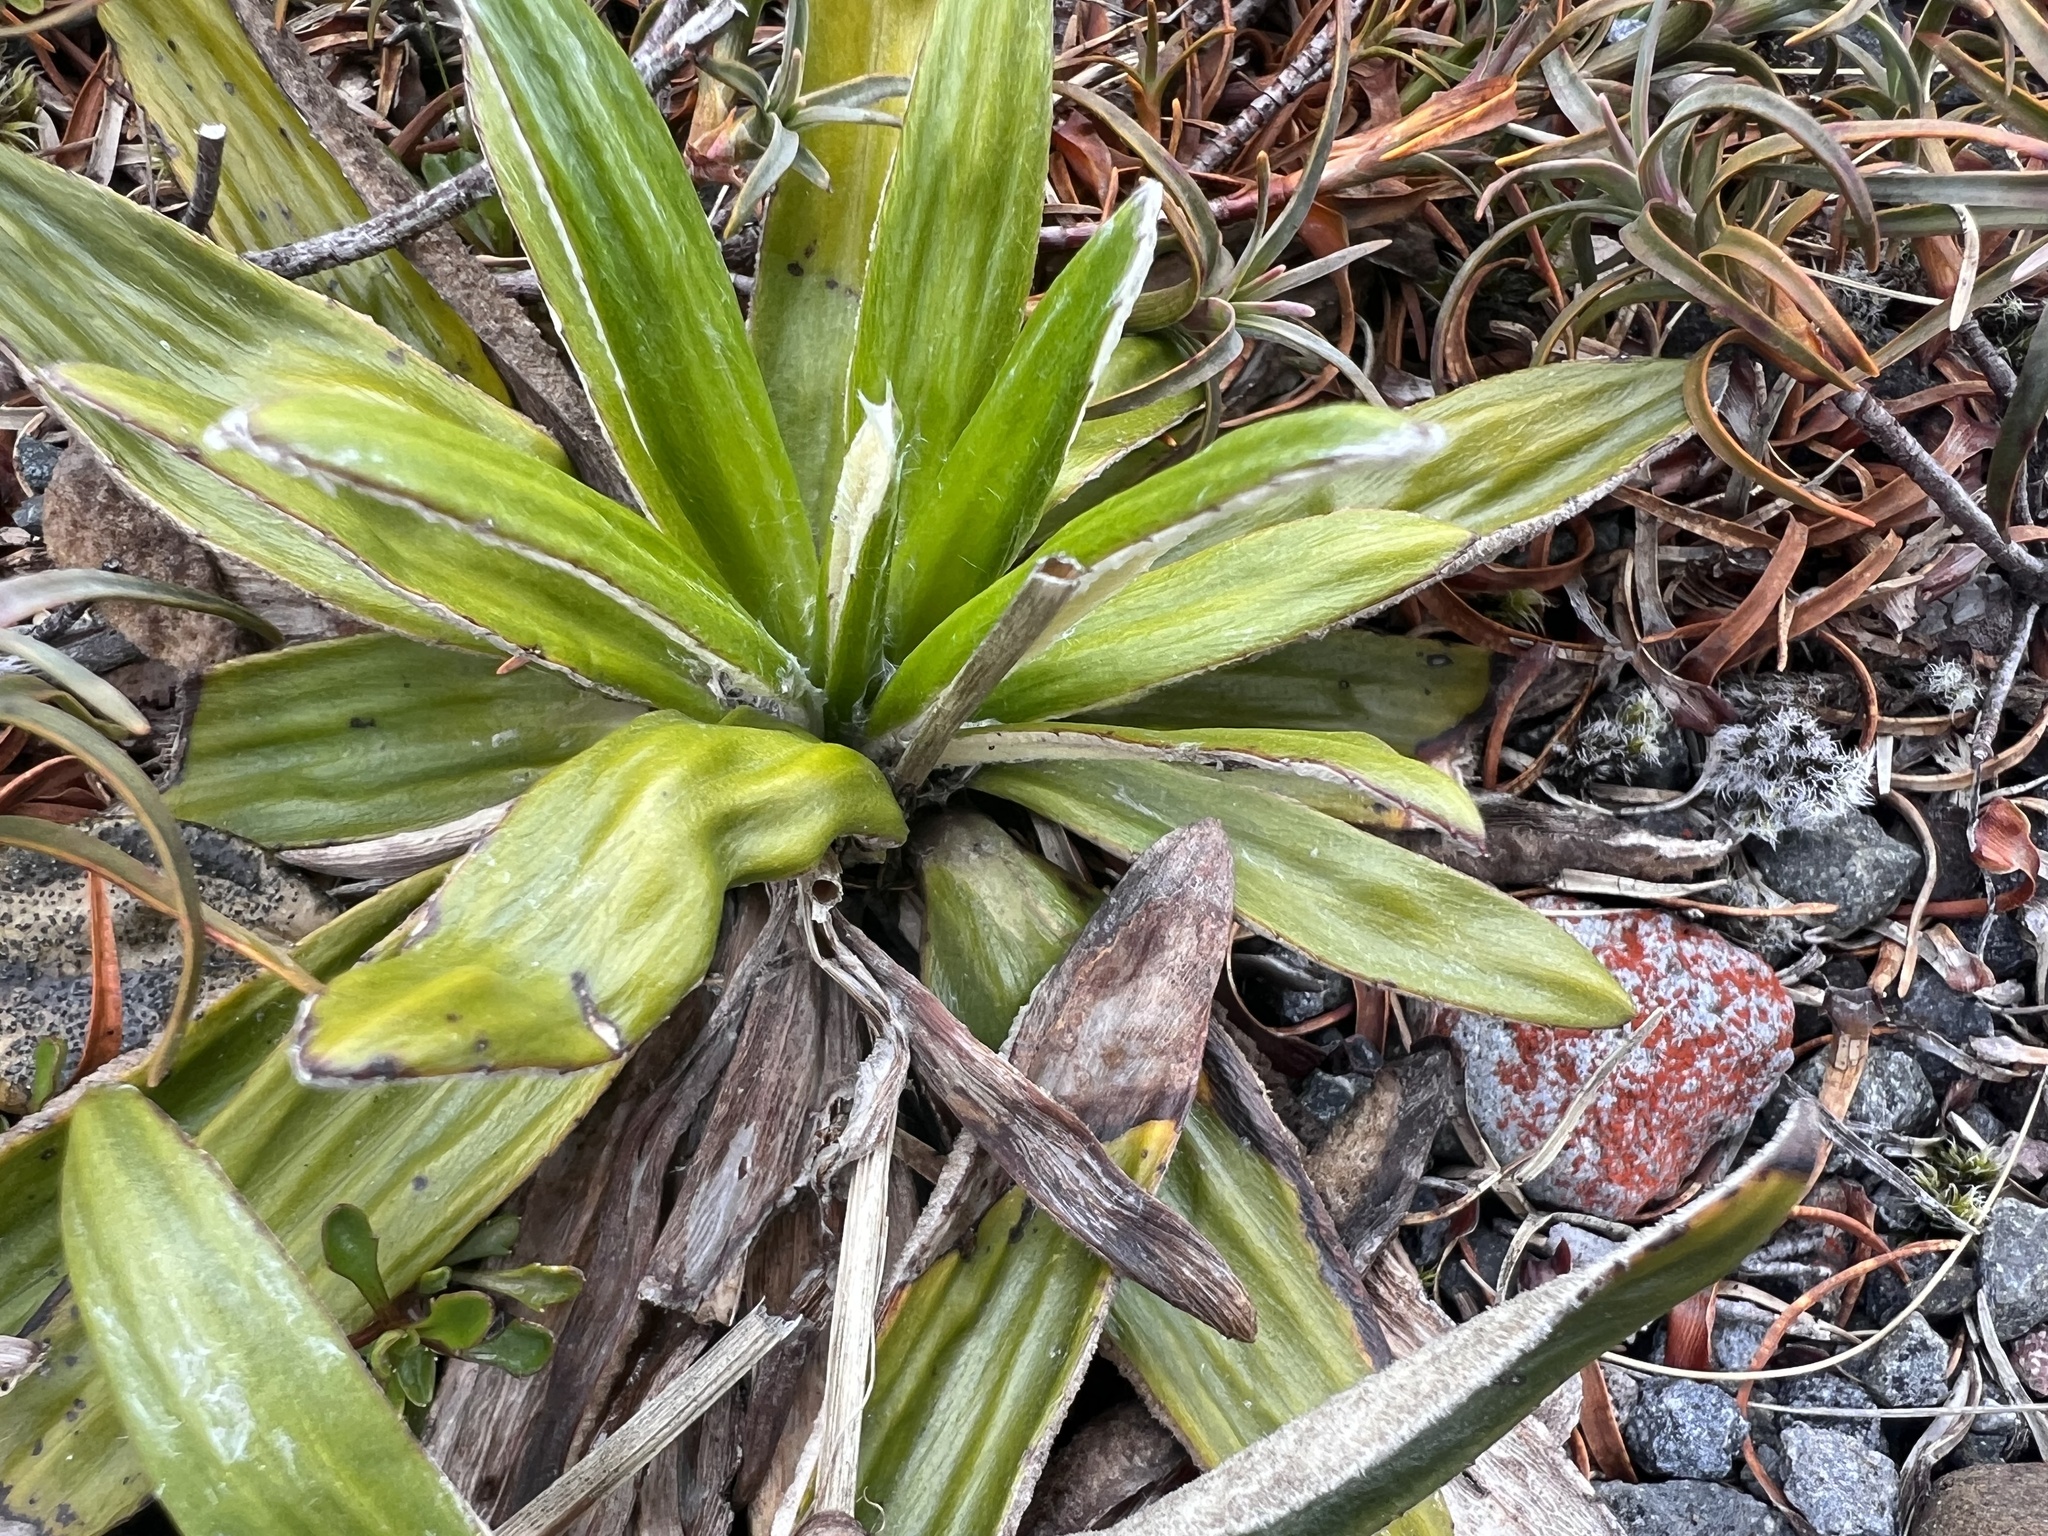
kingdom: Plantae
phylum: Tracheophyta
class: Magnoliopsida
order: Asterales
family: Asteraceae
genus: Celmisia
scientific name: Celmisia spectabilis
